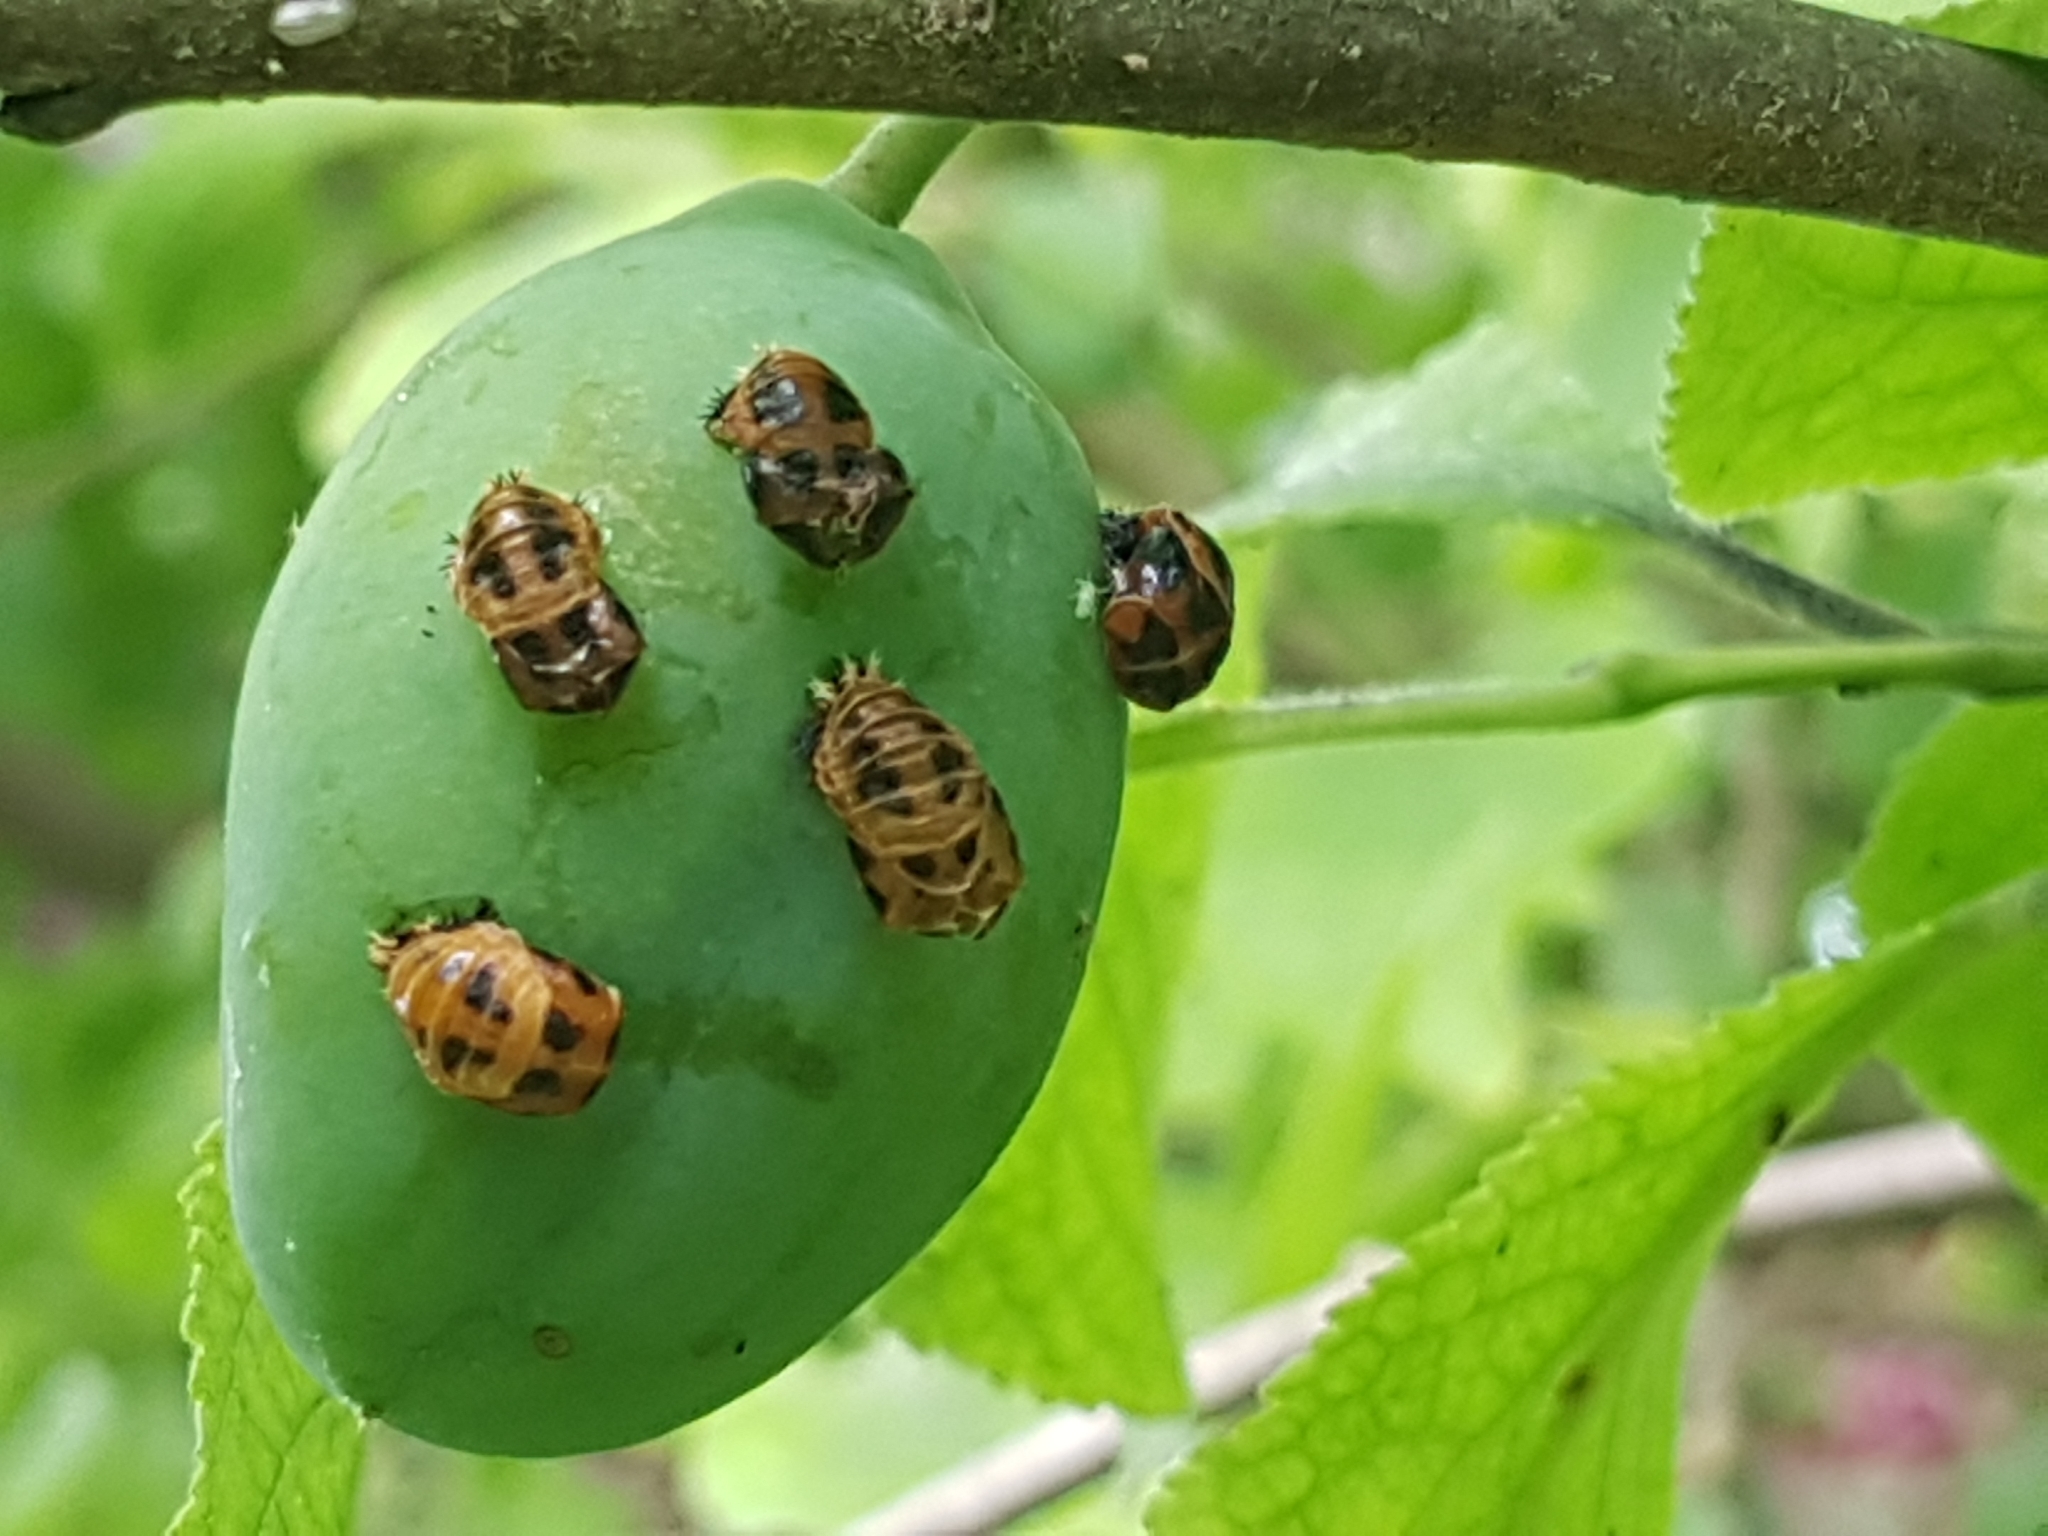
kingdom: Animalia
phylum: Arthropoda
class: Insecta
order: Coleoptera
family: Coccinellidae
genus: Harmonia
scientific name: Harmonia axyridis
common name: Harlequin ladybird
